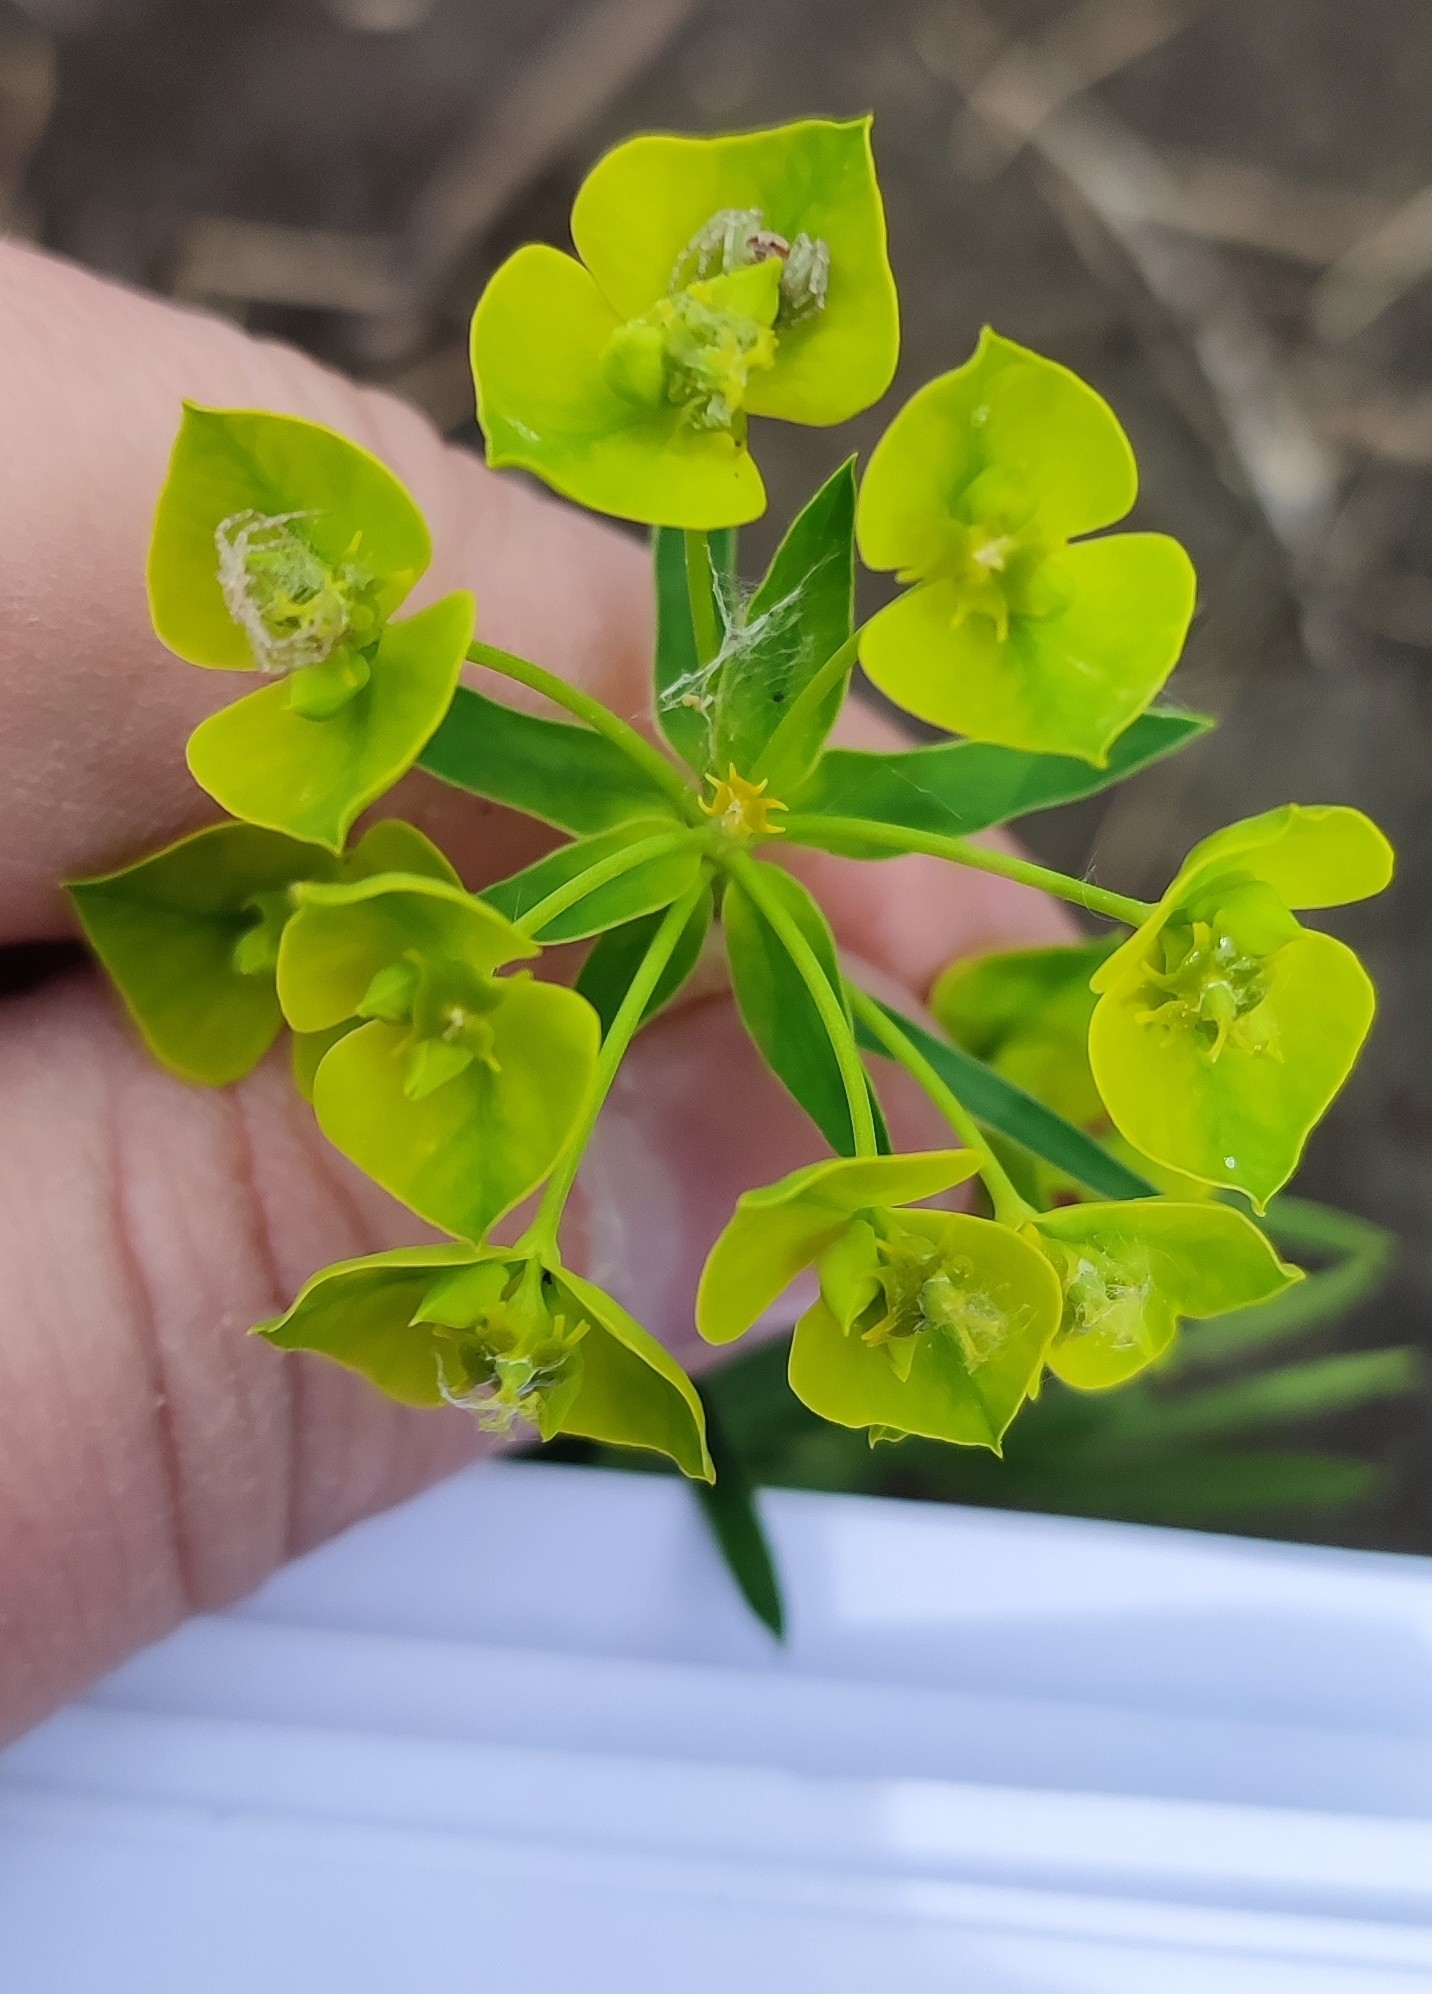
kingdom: Plantae
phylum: Tracheophyta
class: Magnoliopsida
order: Malpighiales
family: Euphorbiaceae
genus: Euphorbia
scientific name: Euphorbia virgata
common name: Leafy spurge
